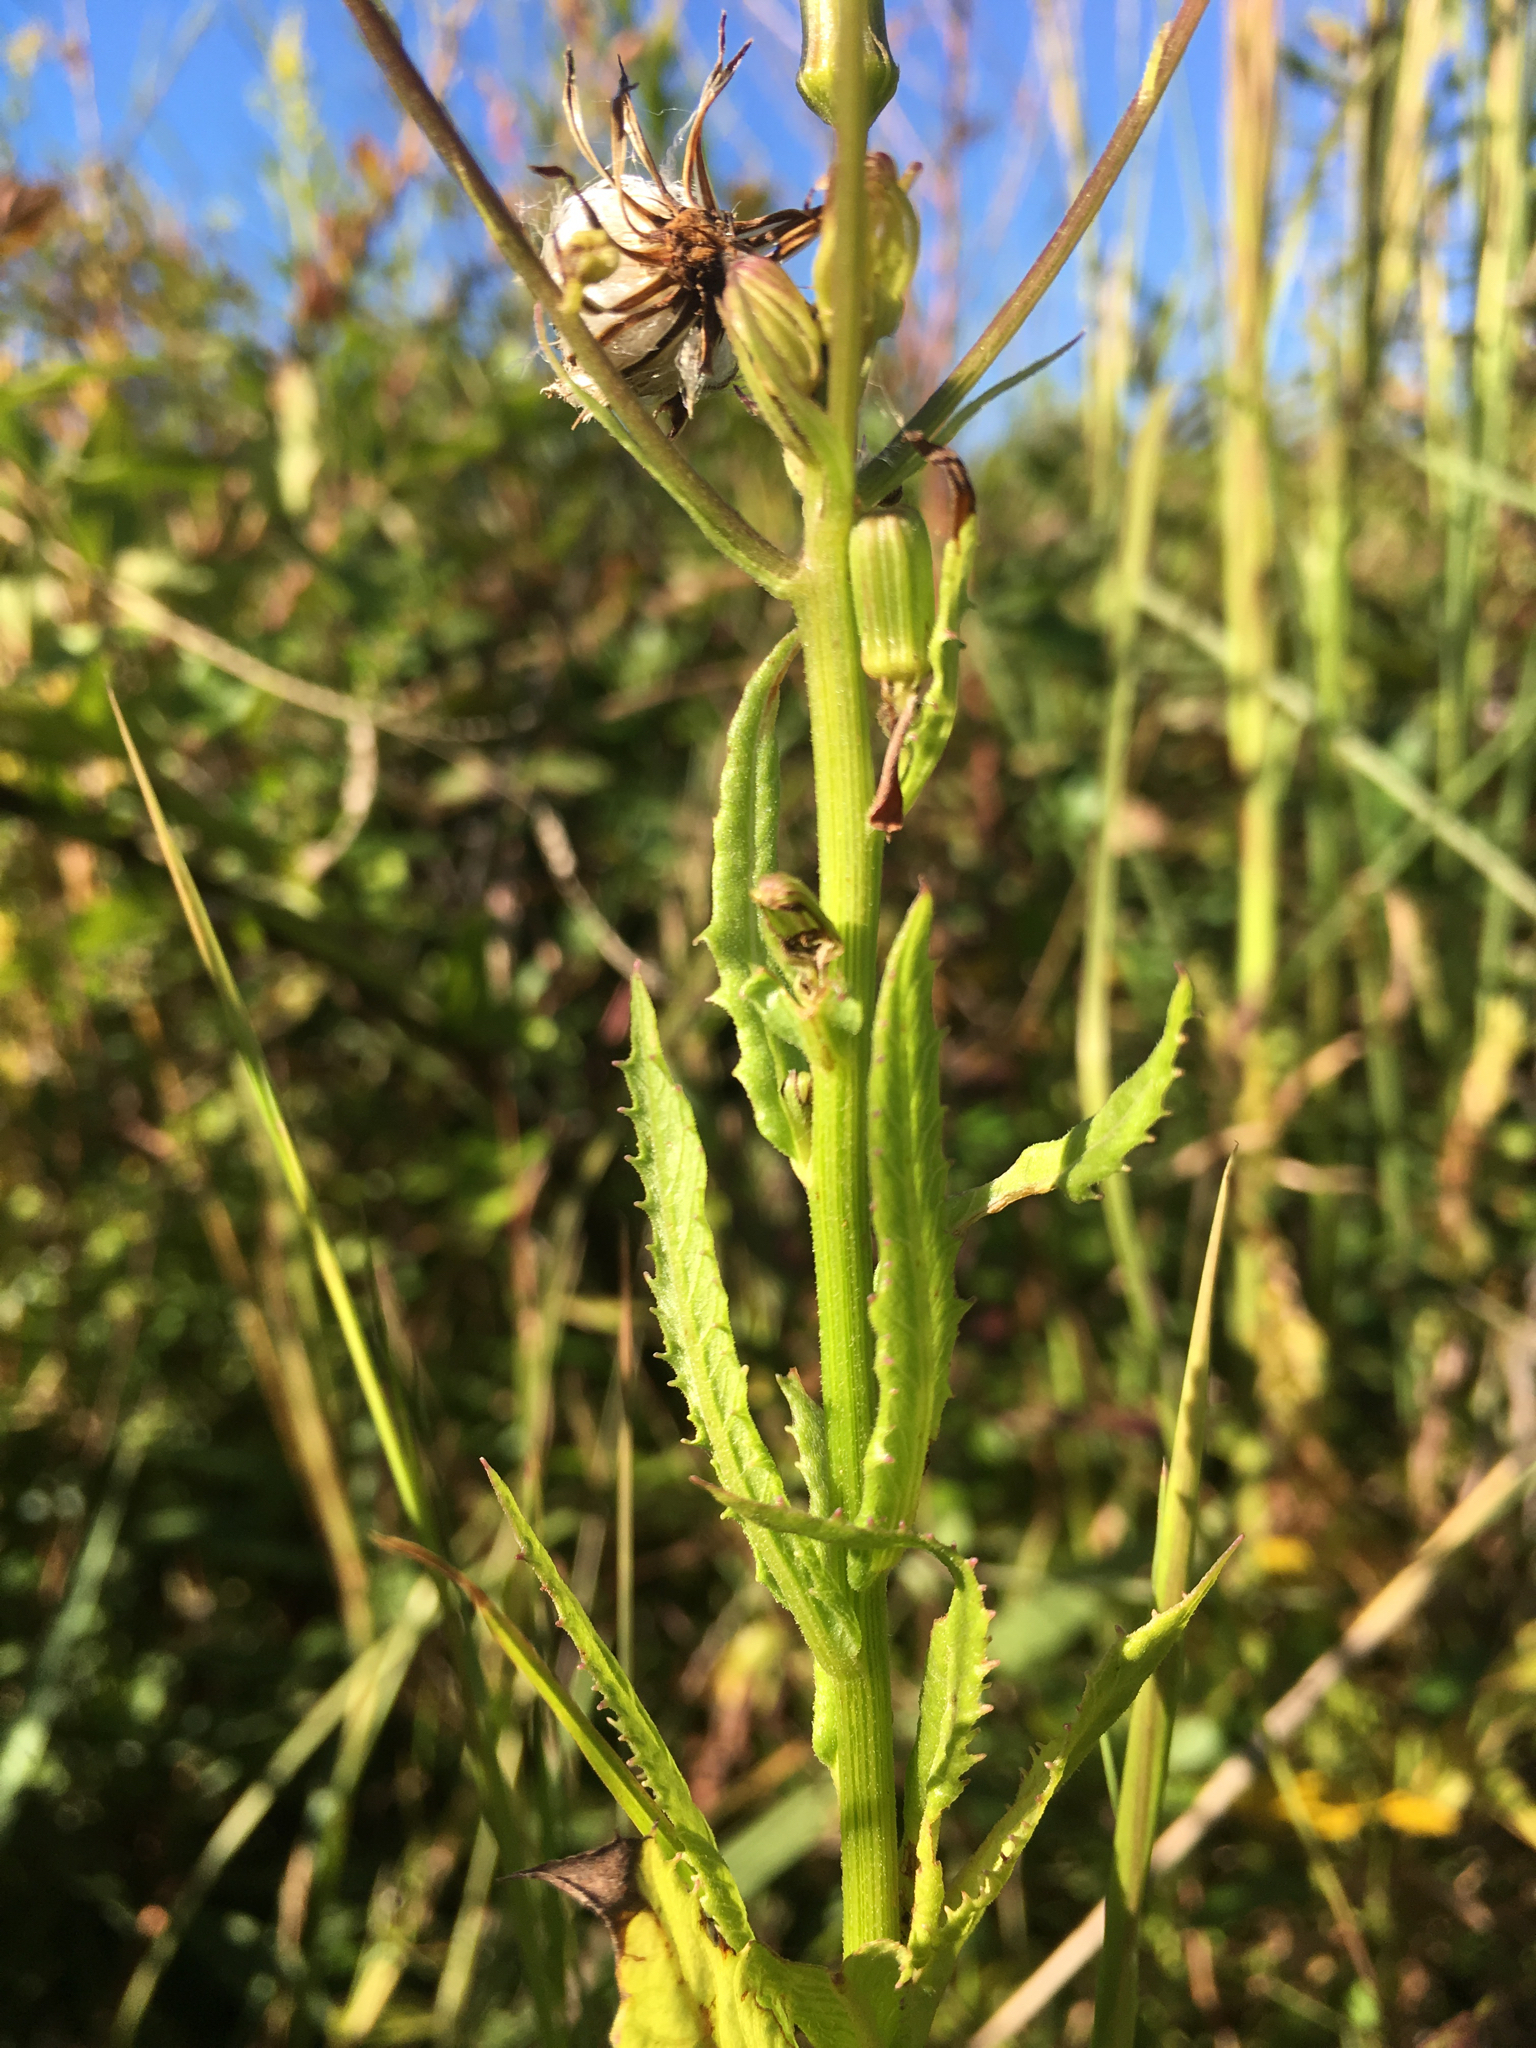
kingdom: Plantae
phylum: Tracheophyta
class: Magnoliopsida
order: Asterales
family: Asteraceae
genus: Erechtites
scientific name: Erechtites hieraciifolius
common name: American burnweed
